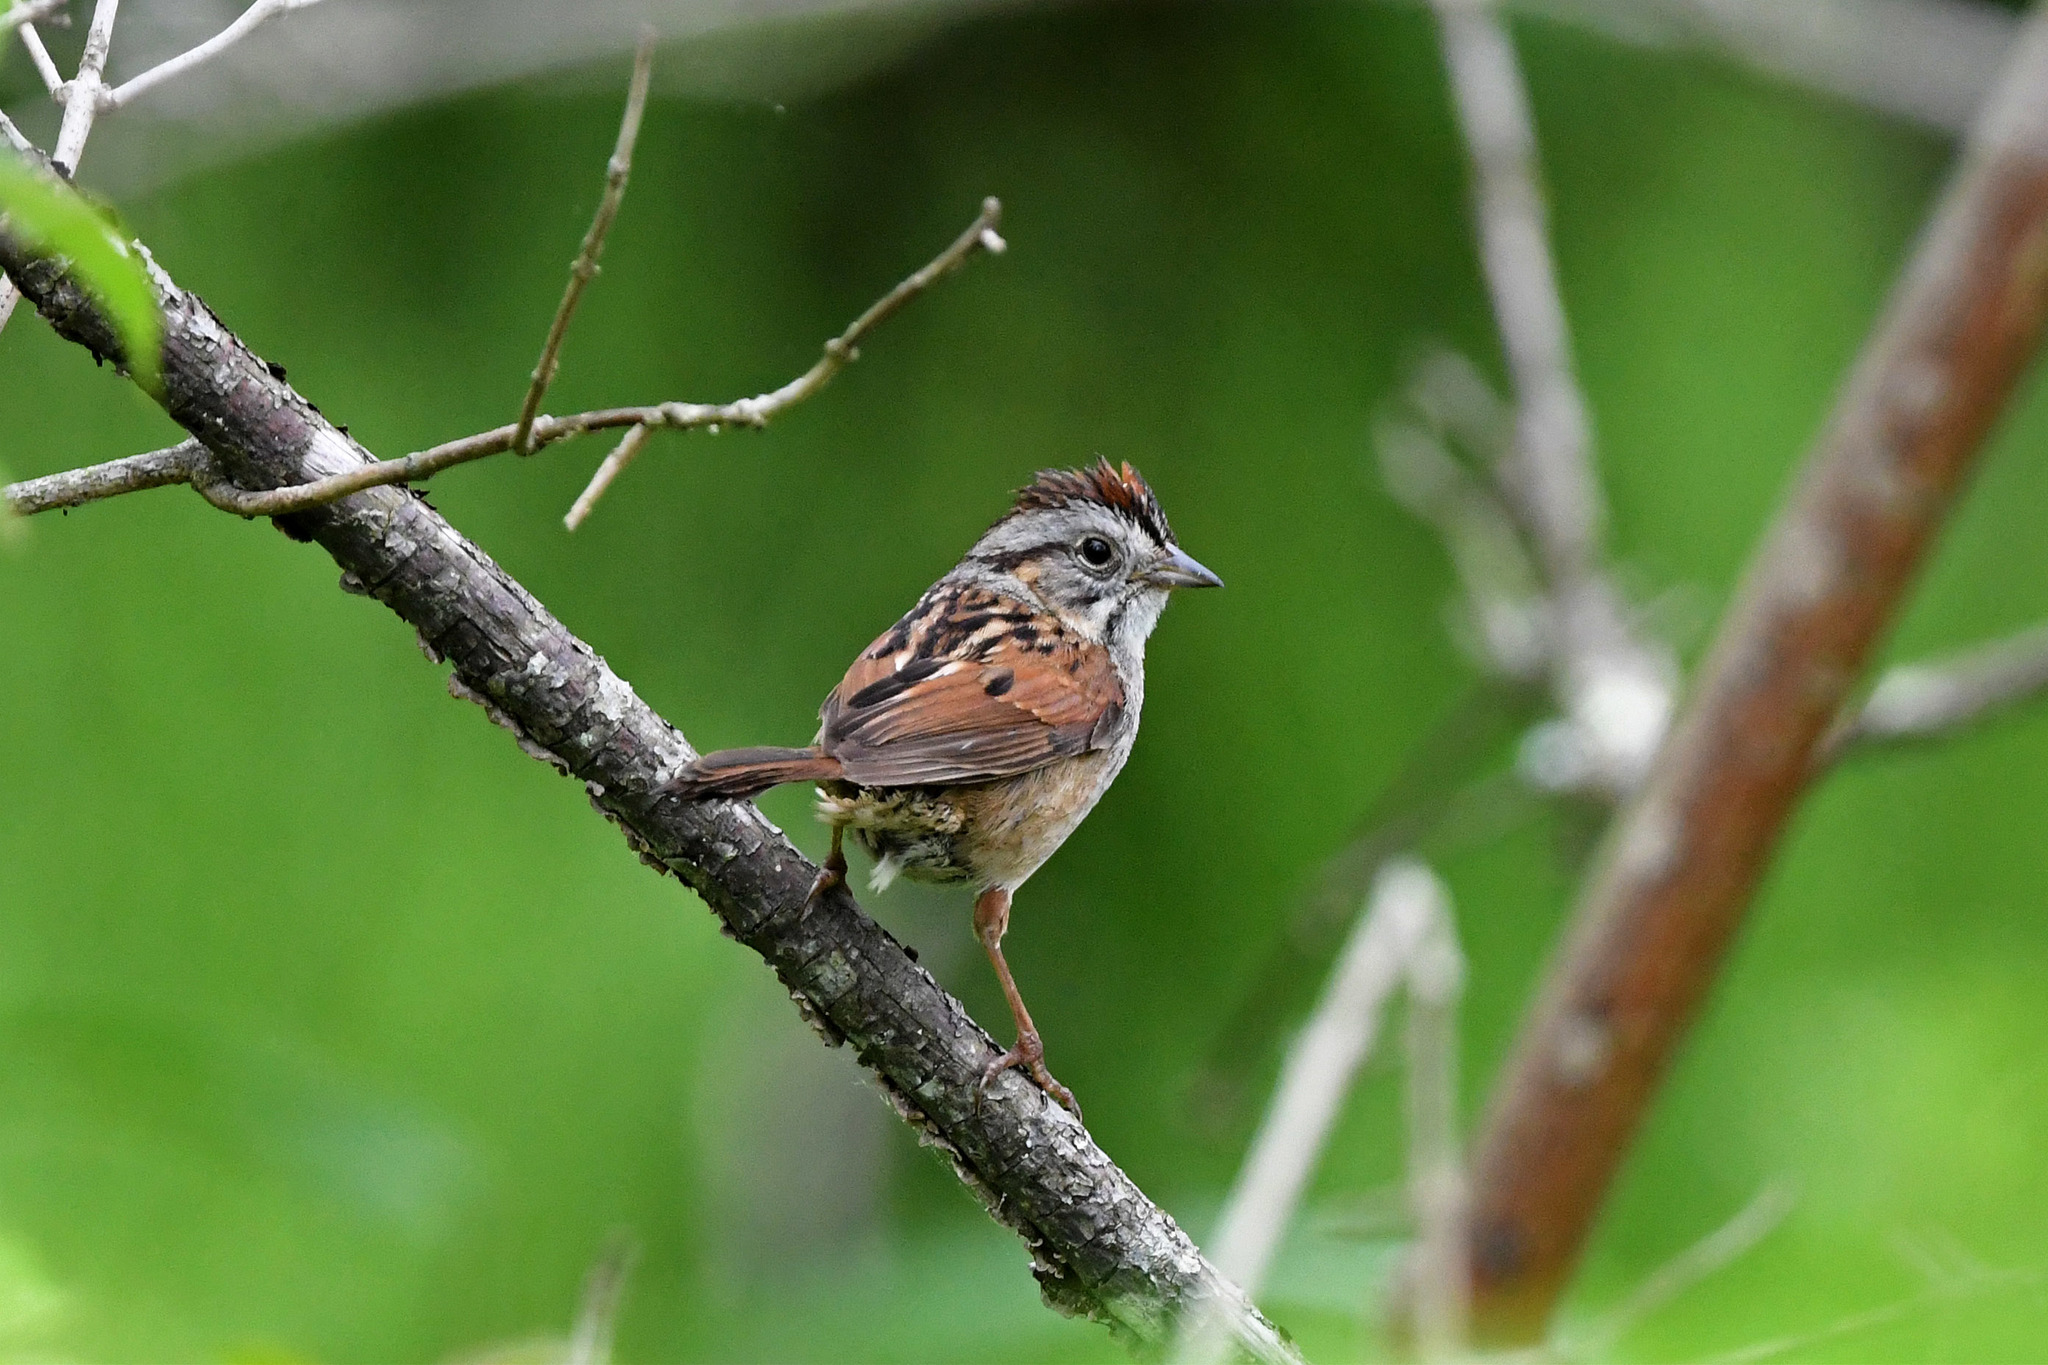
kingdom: Animalia
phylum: Chordata
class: Aves
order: Passeriformes
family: Passerellidae
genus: Melospiza
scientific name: Melospiza georgiana
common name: Swamp sparrow
